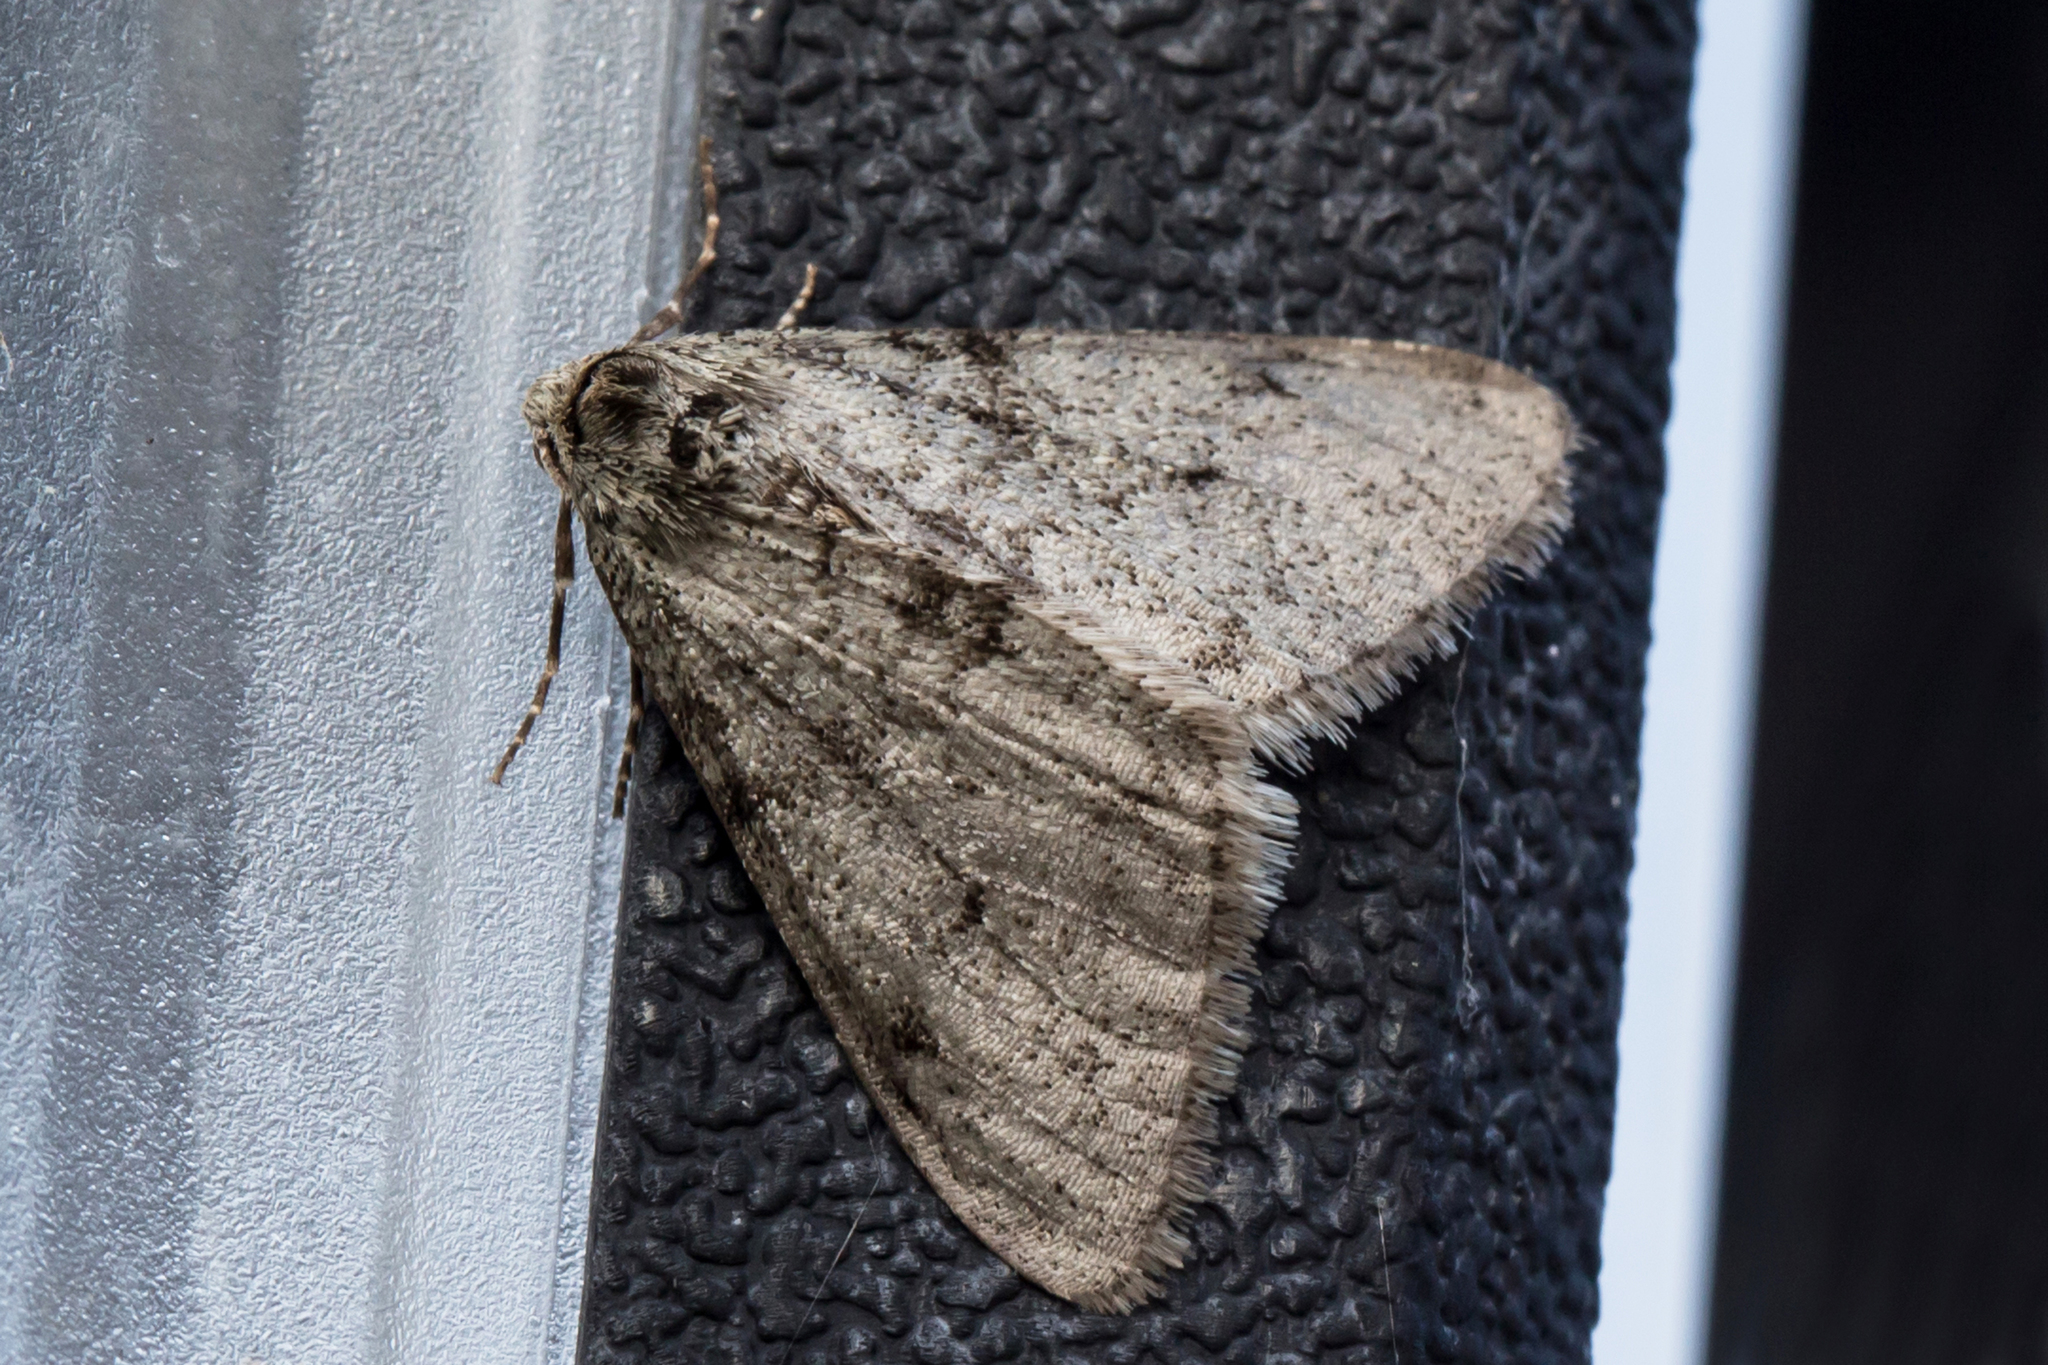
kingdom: Animalia
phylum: Arthropoda
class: Insecta
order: Lepidoptera
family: Geometridae
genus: Phigalia
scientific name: Phigalia strigataria
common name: Small phigalia
